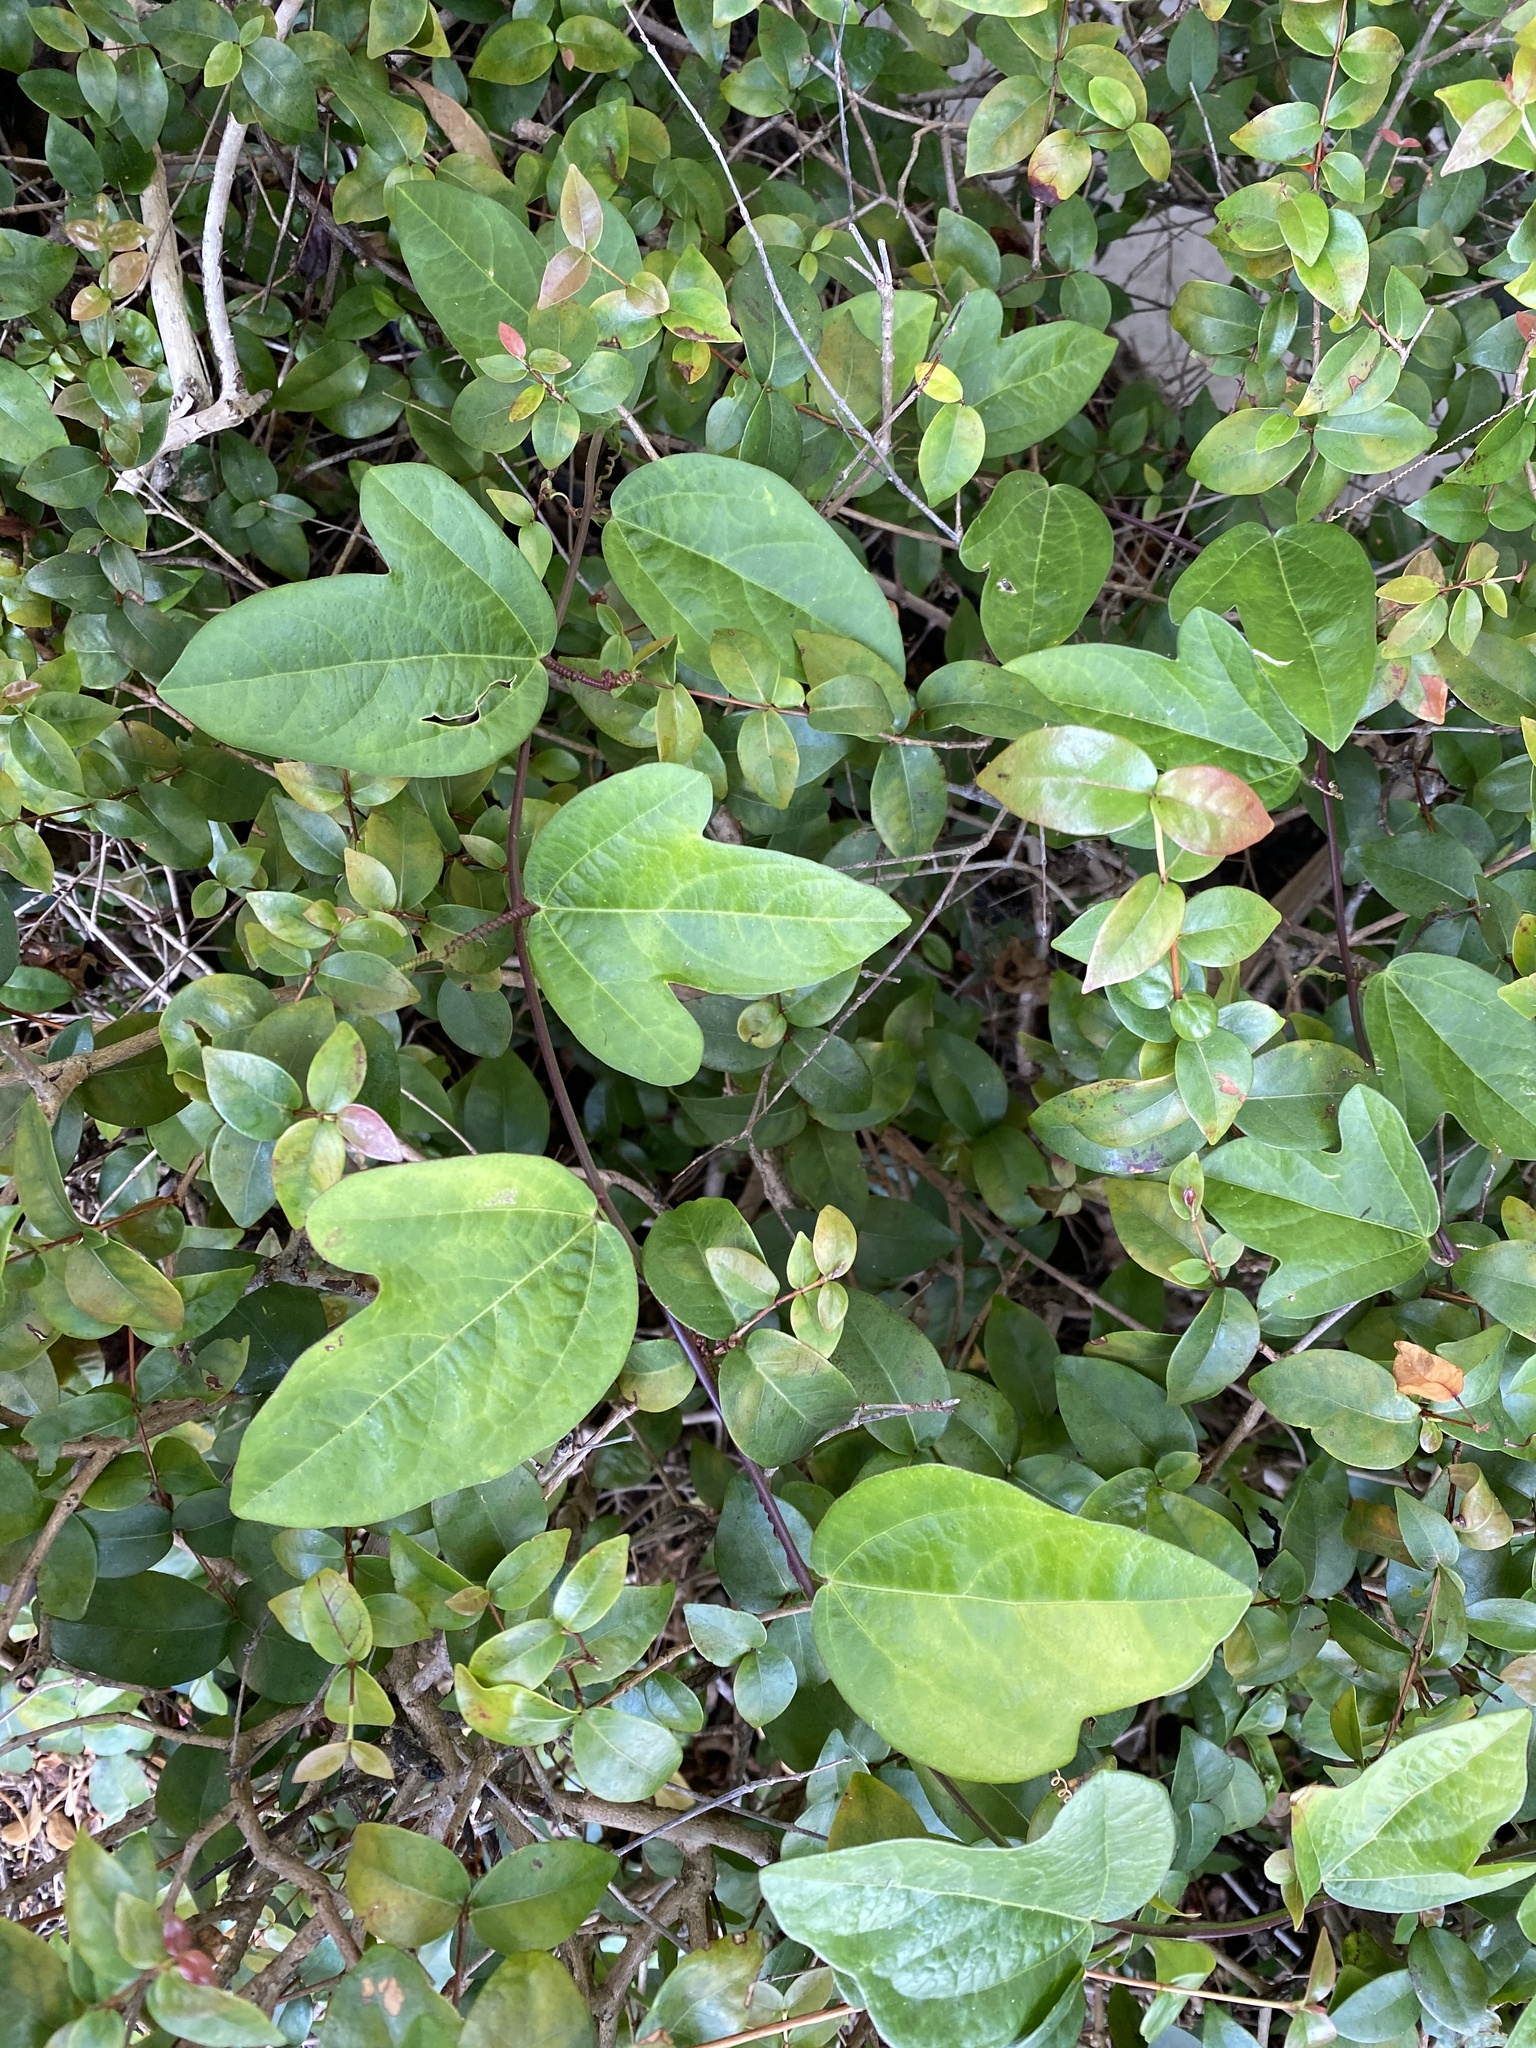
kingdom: Plantae
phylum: Tracheophyta
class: Magnoliopsida
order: Malpighiales
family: Passifloraceae
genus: Passiflora
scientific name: Passiflora pallida
